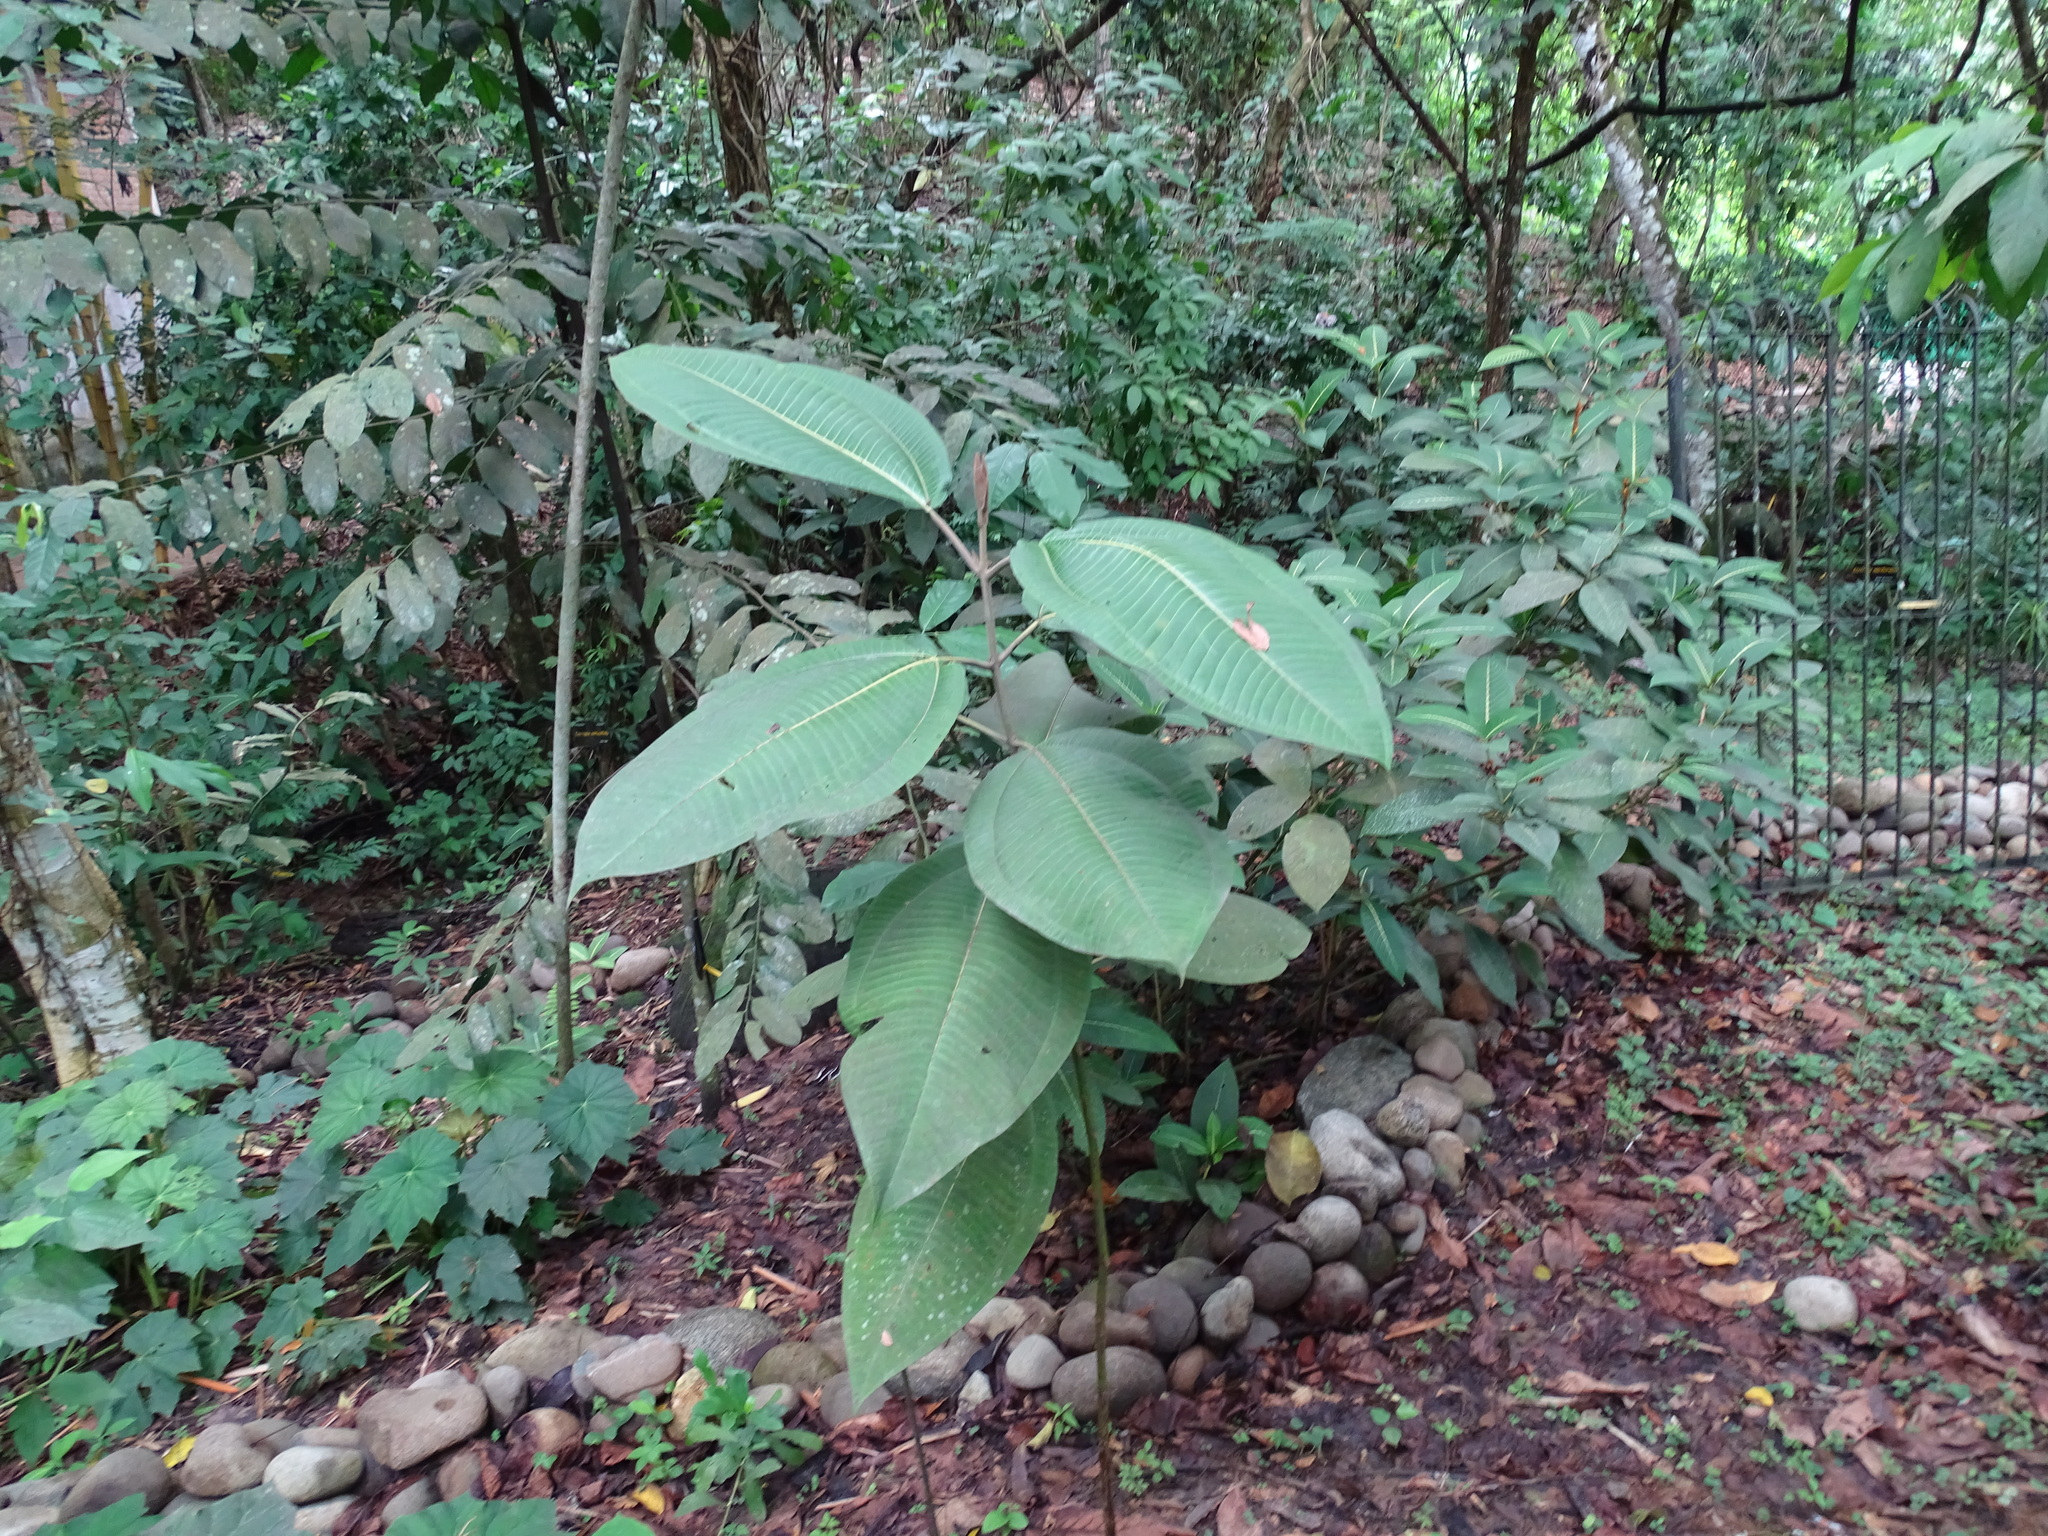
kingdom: Plantae
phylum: Tracheophyta
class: Magnoliopsida
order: Myrtales
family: Melastomataceae
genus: Meriania
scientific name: Meriania macrophylla
